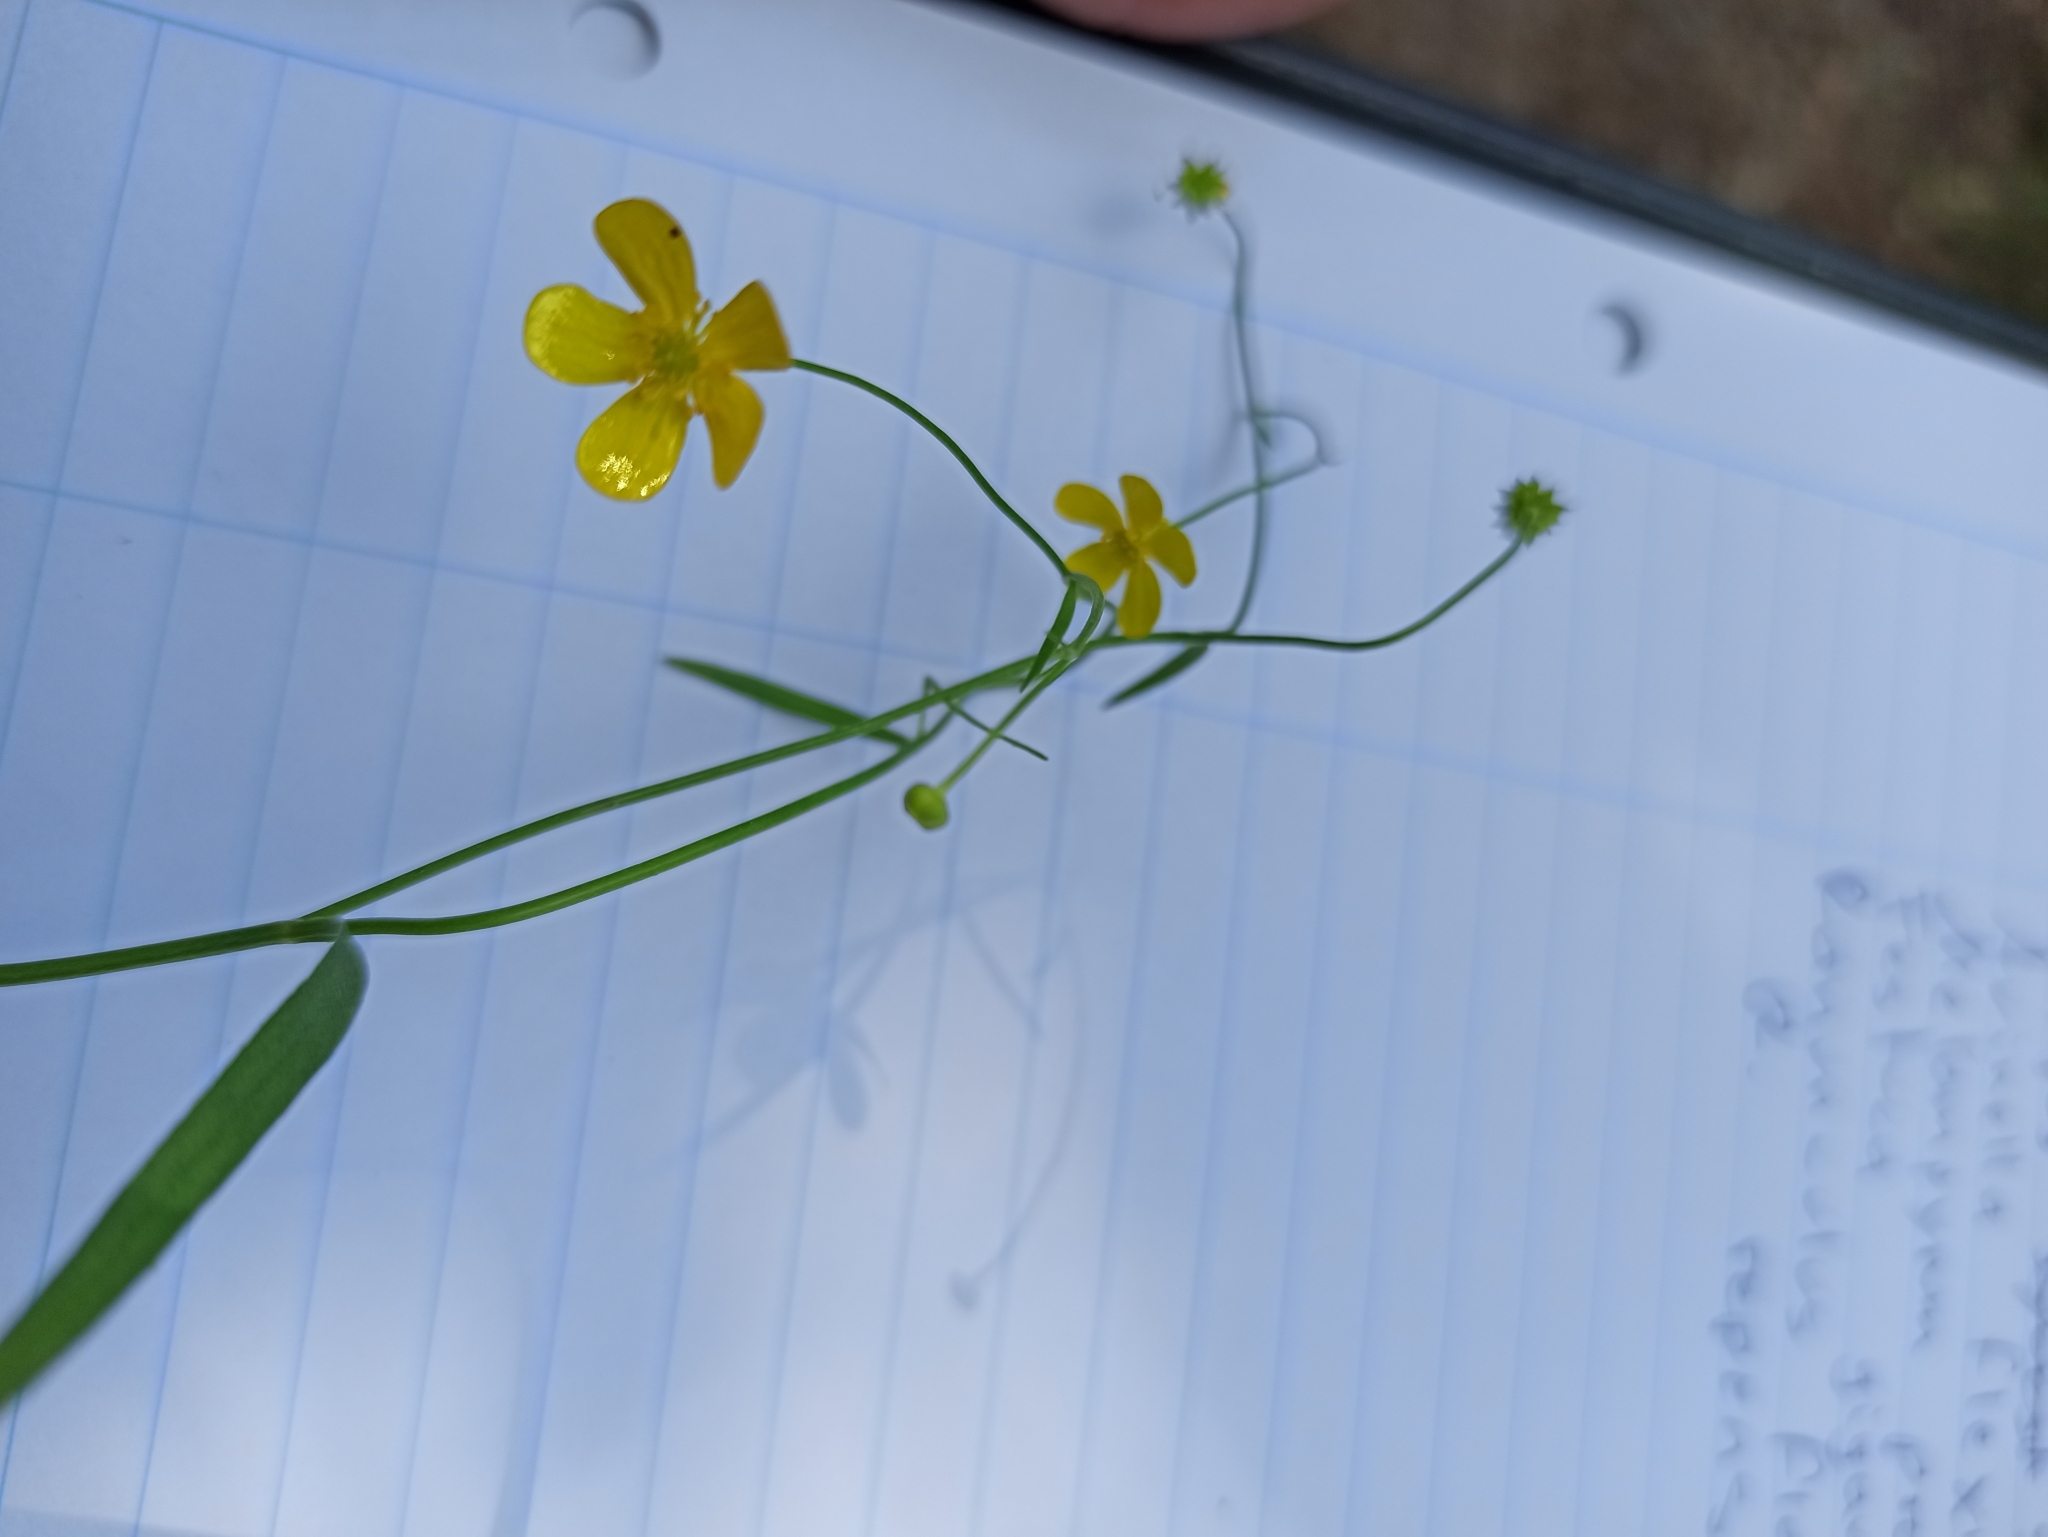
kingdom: Plantae
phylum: Tracheophyta
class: Magnoliopsida
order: Ranunculales
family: Ranunculaceae
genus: Ranunculus
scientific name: Ranunculus flammula
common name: Lesser spearwort
